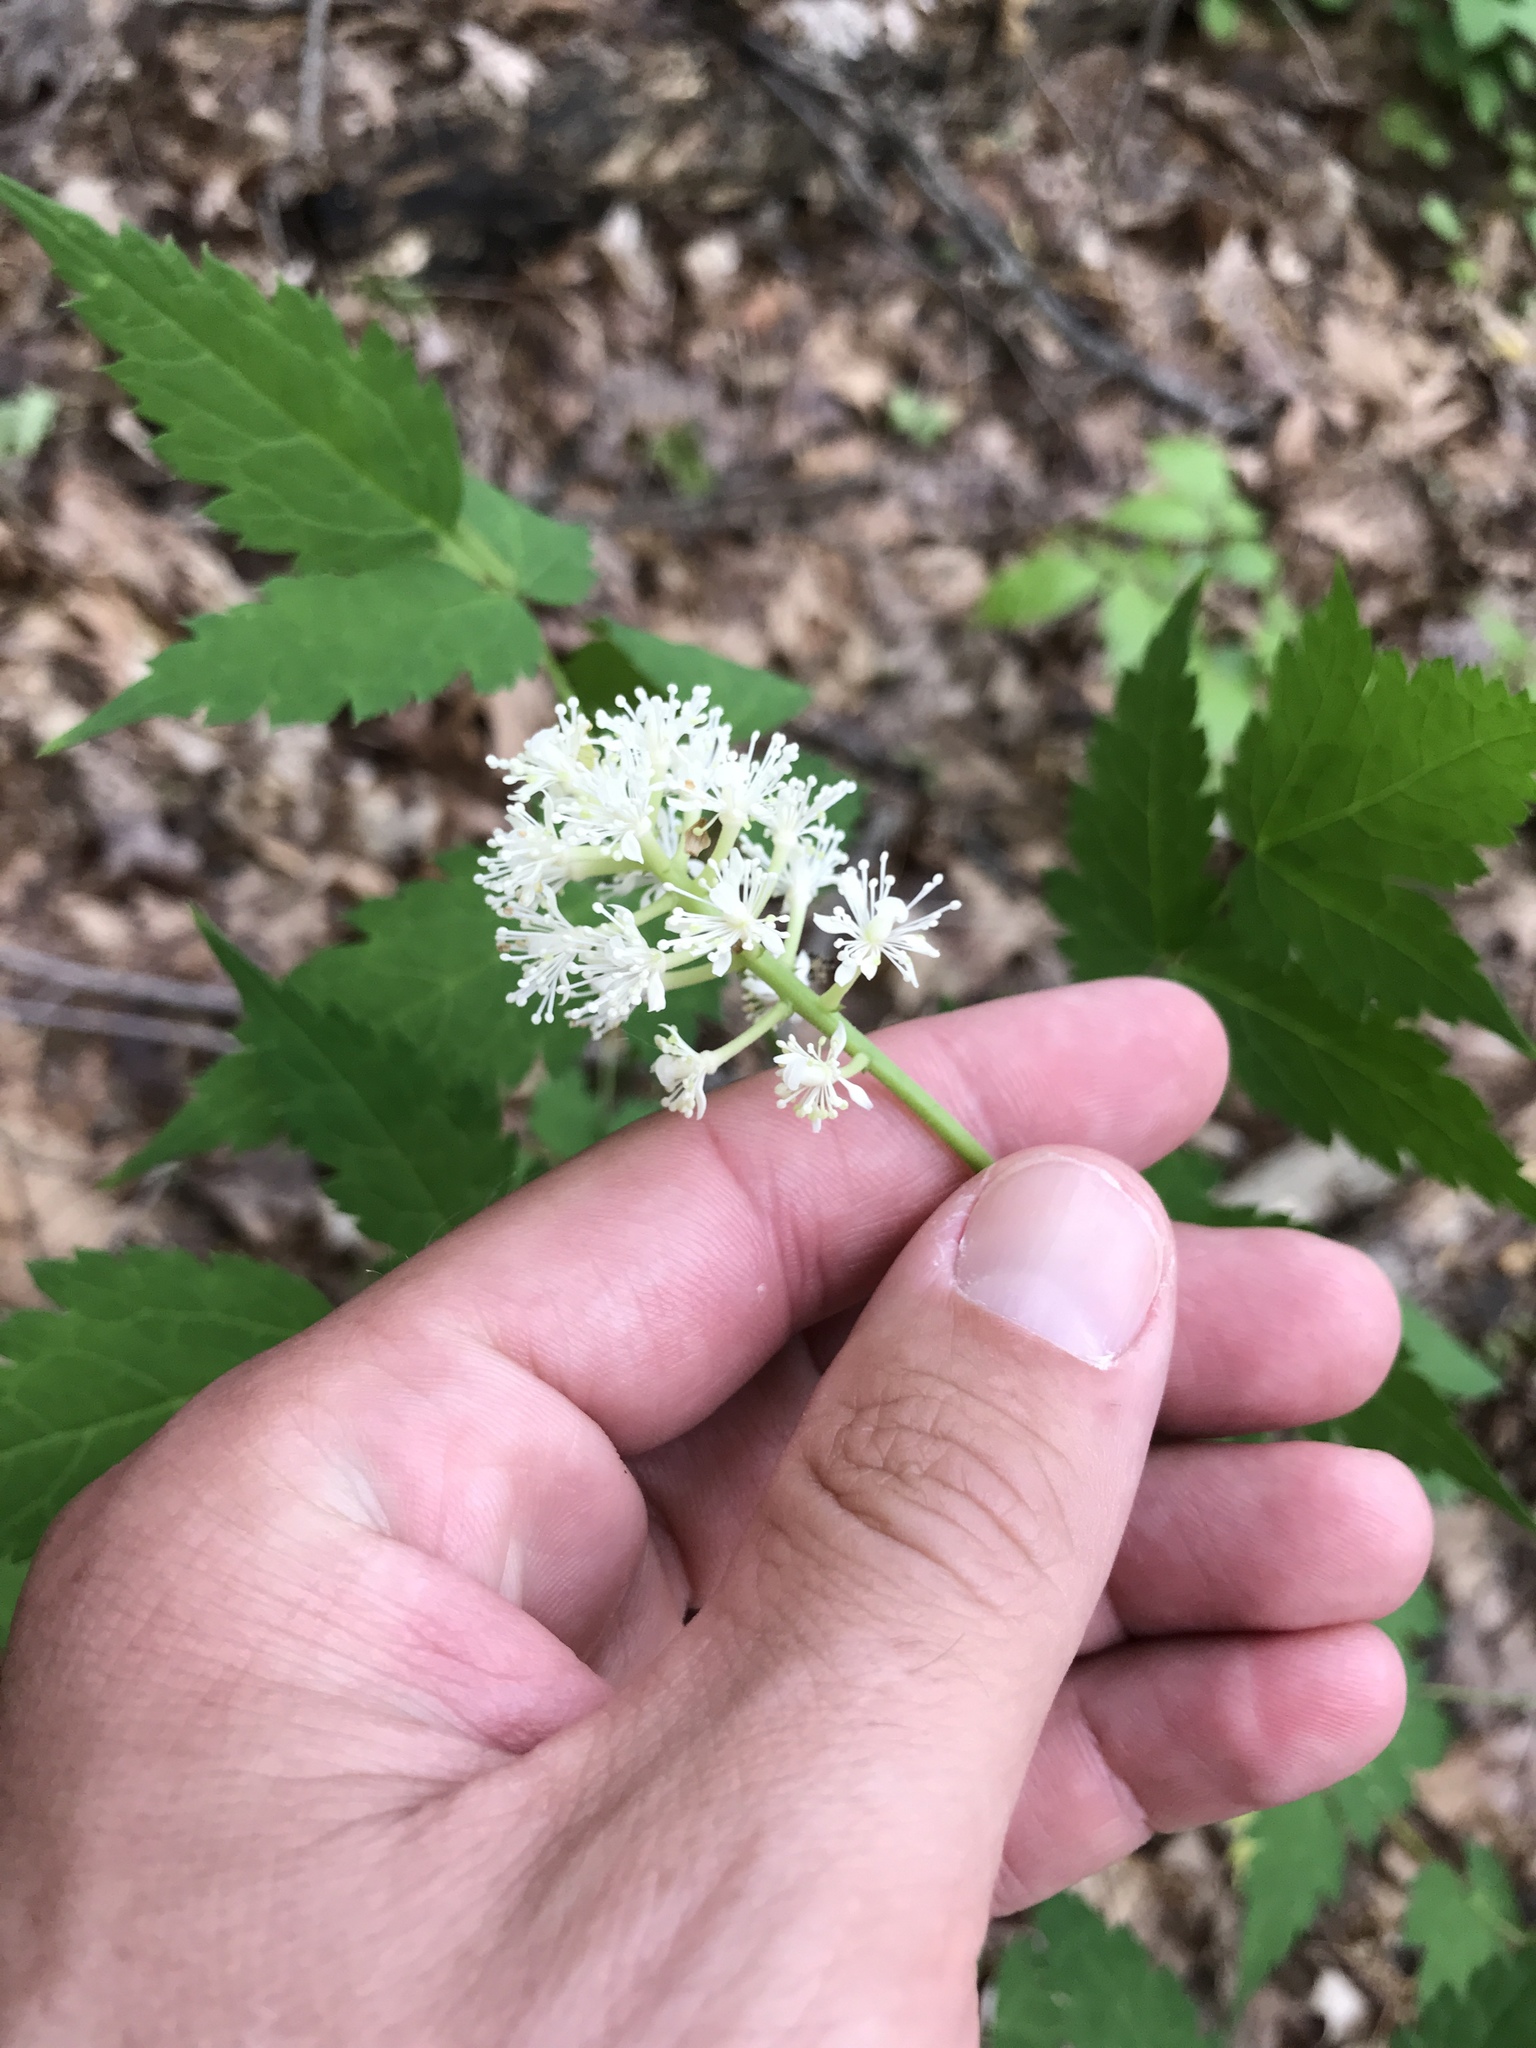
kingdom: Plantae
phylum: Tracheophyta
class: Magnoliopsida
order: Ranunculales
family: Ranunculaceae
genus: Actaea
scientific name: Actaea pachypoda
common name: Doll's-eyes
